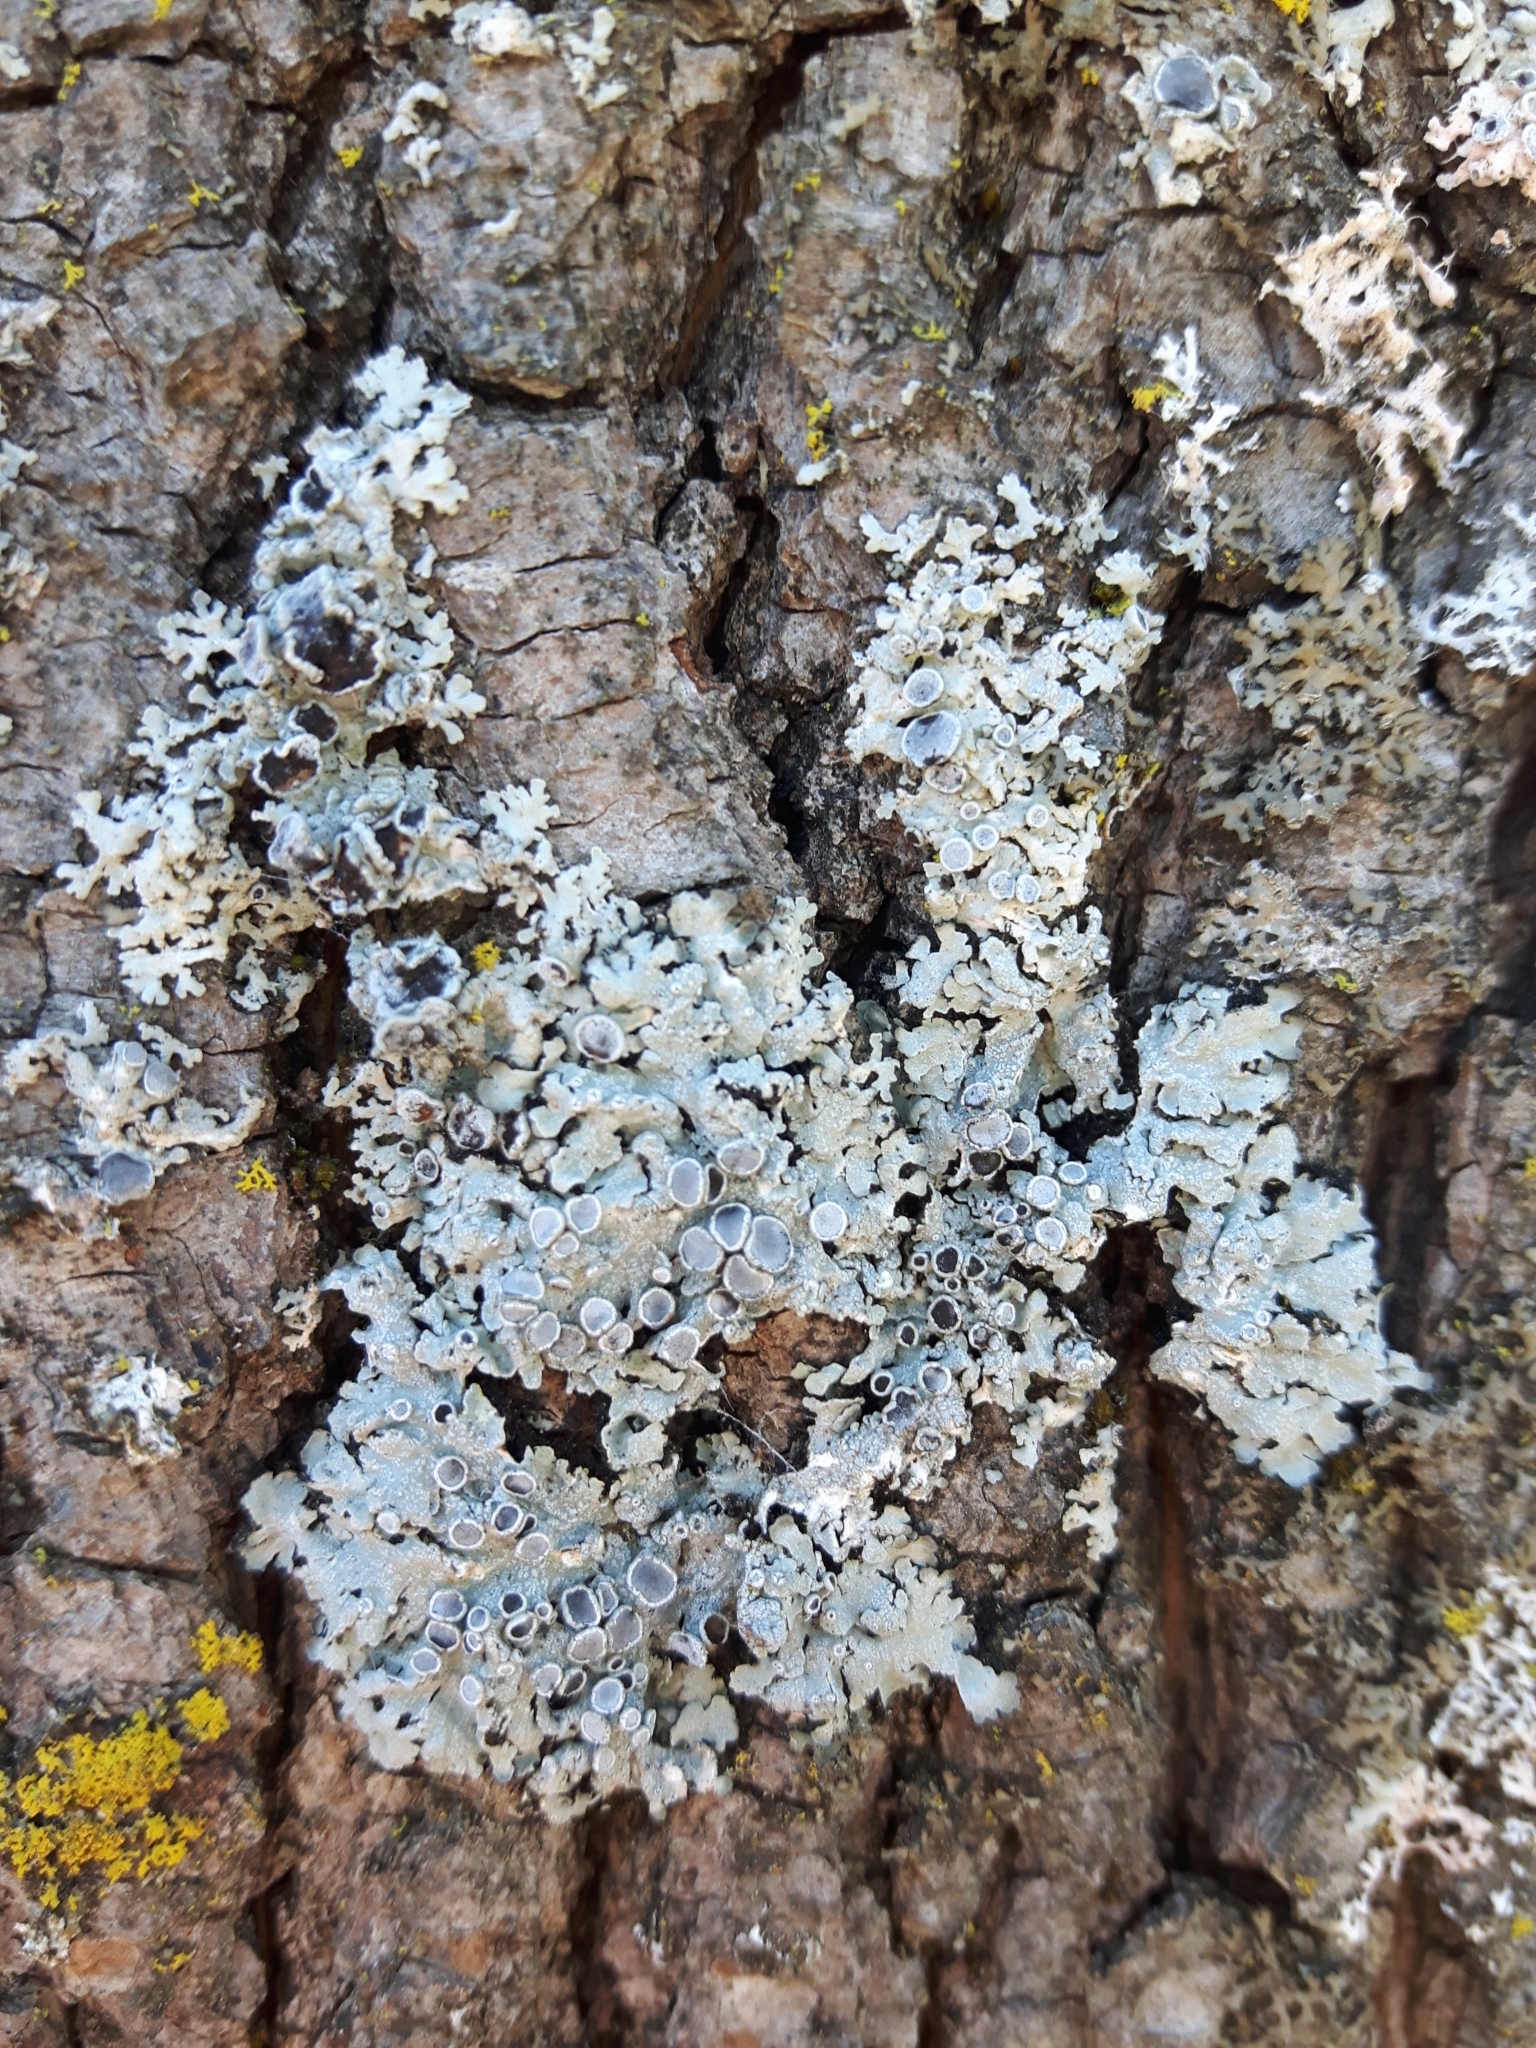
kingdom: Fungi
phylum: Ascomycota
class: Lecanoromycetes
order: Caliciales
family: Physciaceae
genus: Physcia
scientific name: Physcia aipolia
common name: Hoary rosette lichen
